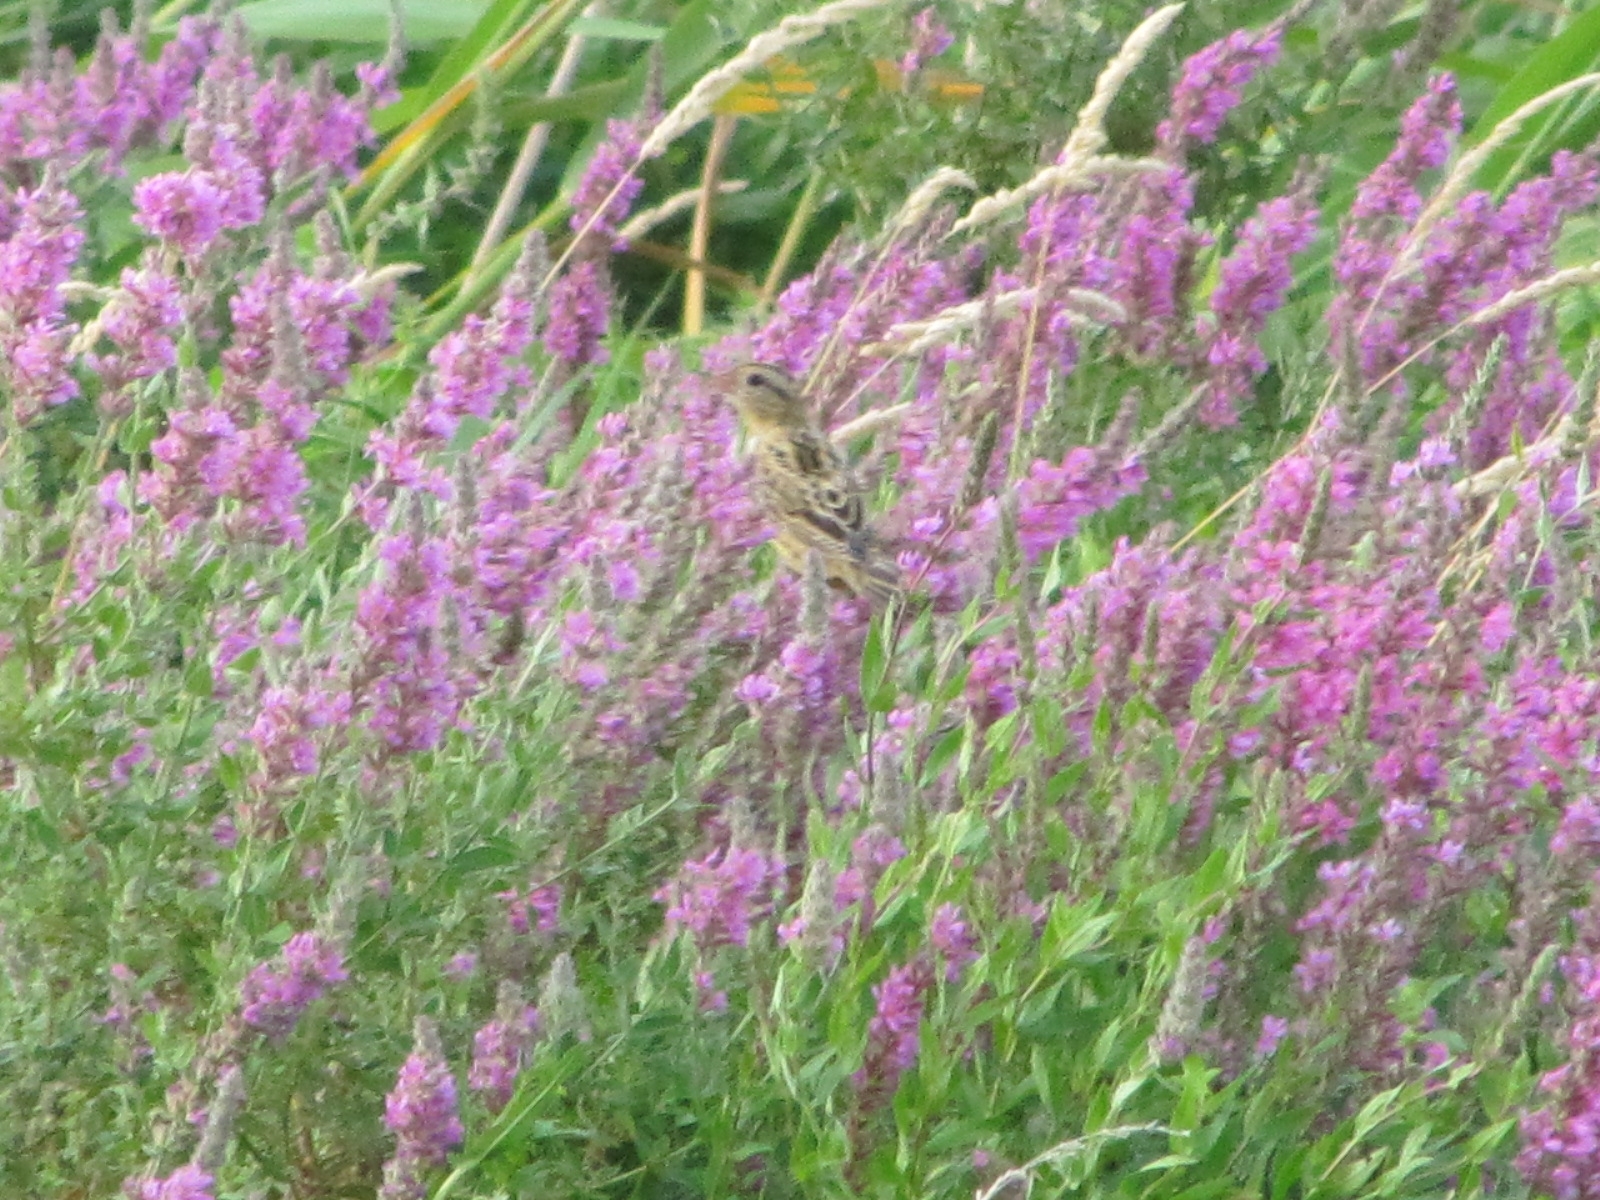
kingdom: Animalia
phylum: Chordata
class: Aves
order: Passeriformes
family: Icteridae
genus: Dolichonyx
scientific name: Dolichonyx oryzivorus
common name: Bobolink
